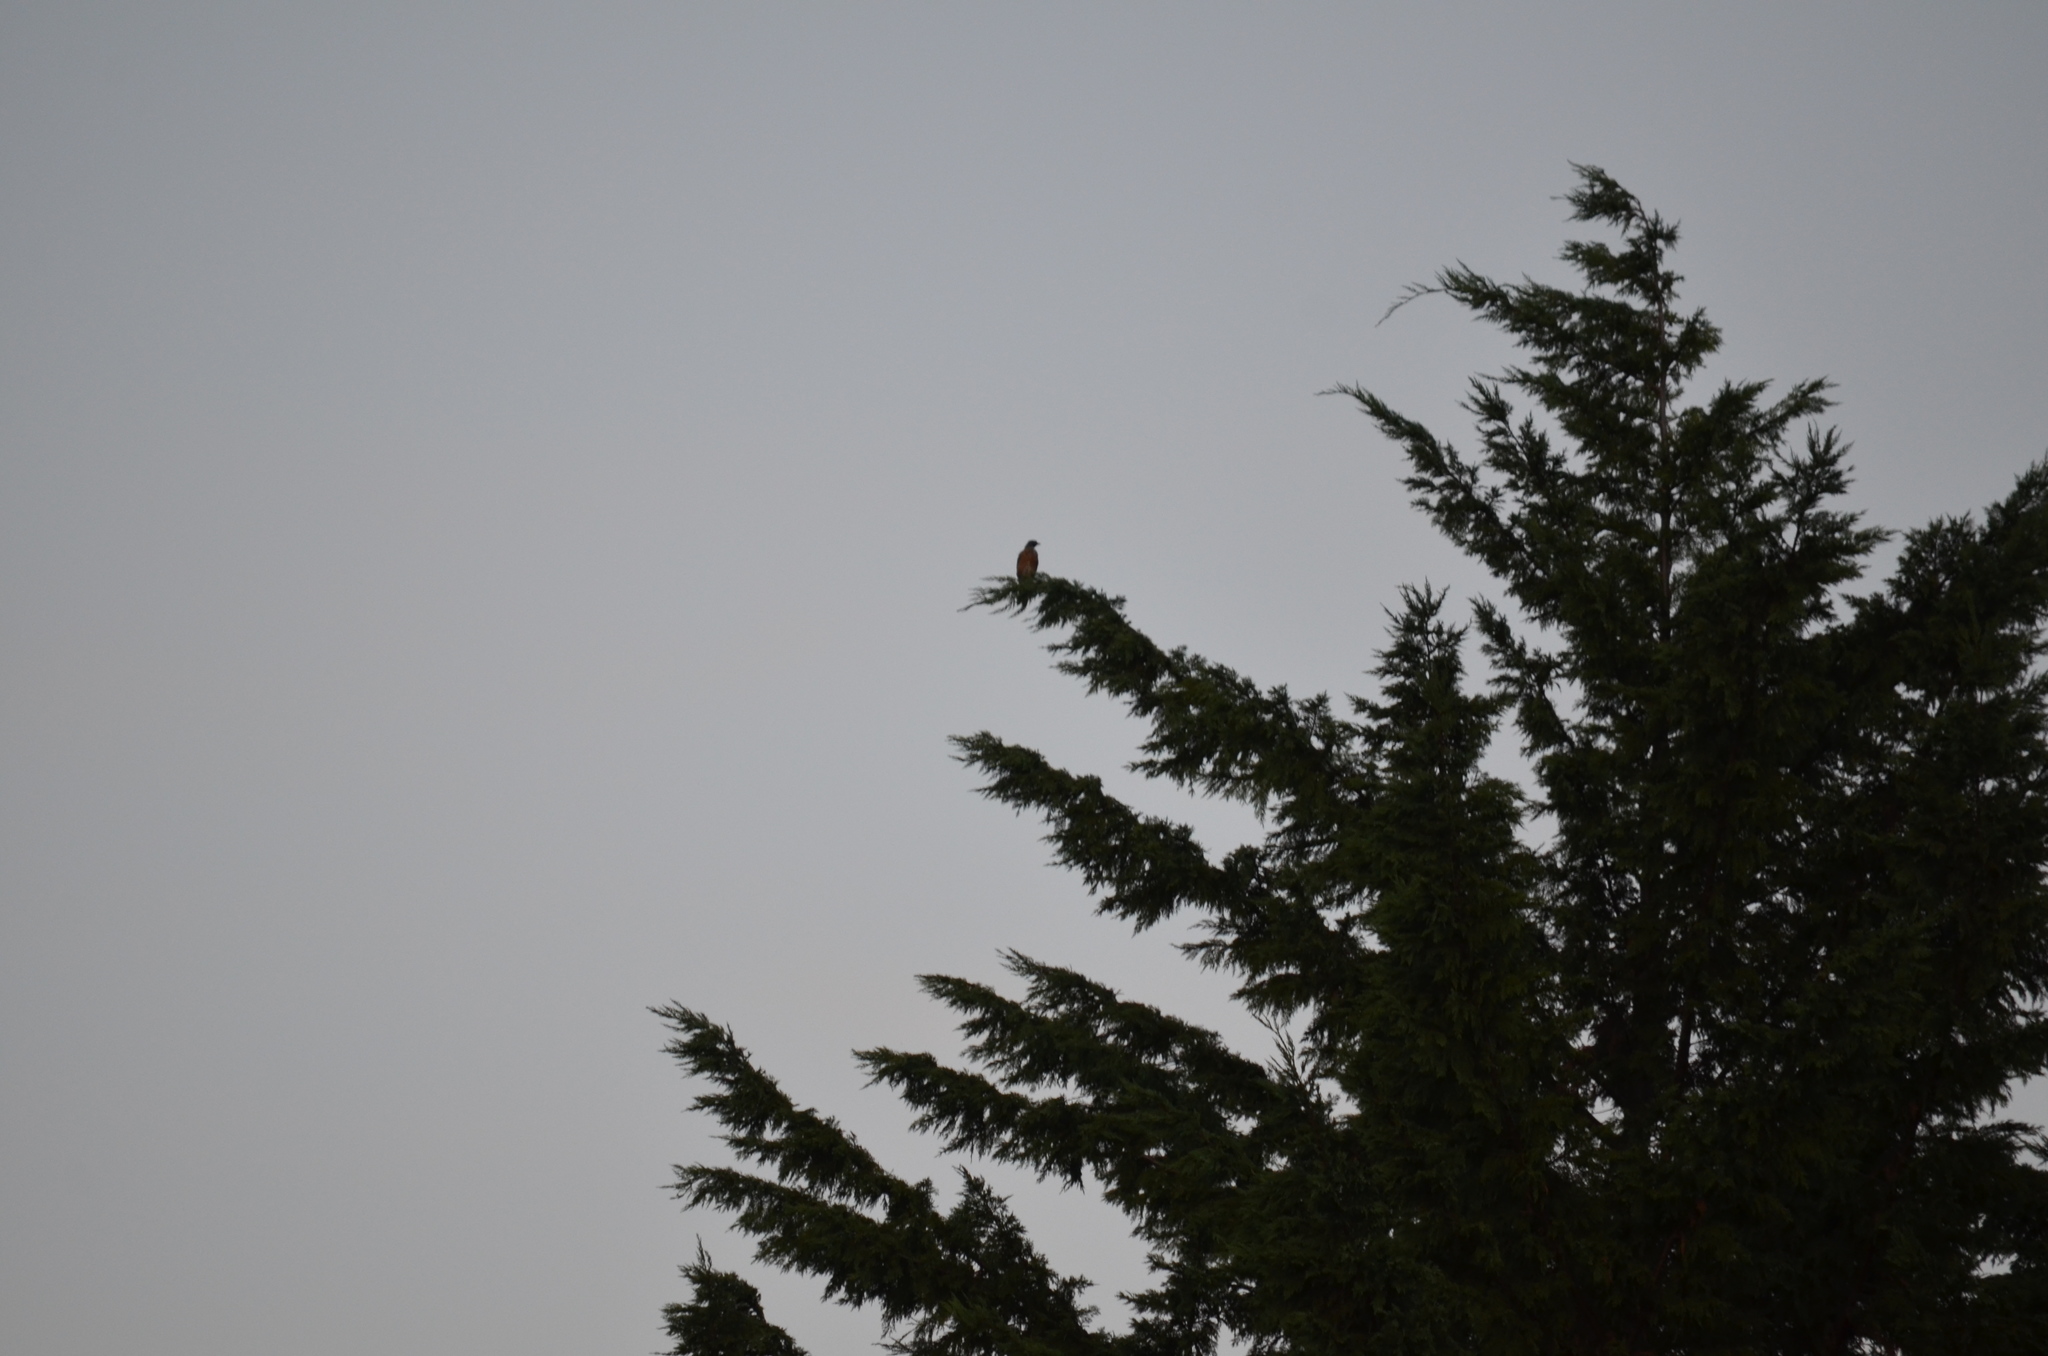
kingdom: Animalia
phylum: Chordata
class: Aves
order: Passeriformes
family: Turdidae
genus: Turdus
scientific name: Turdus migratorius
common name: American robin
